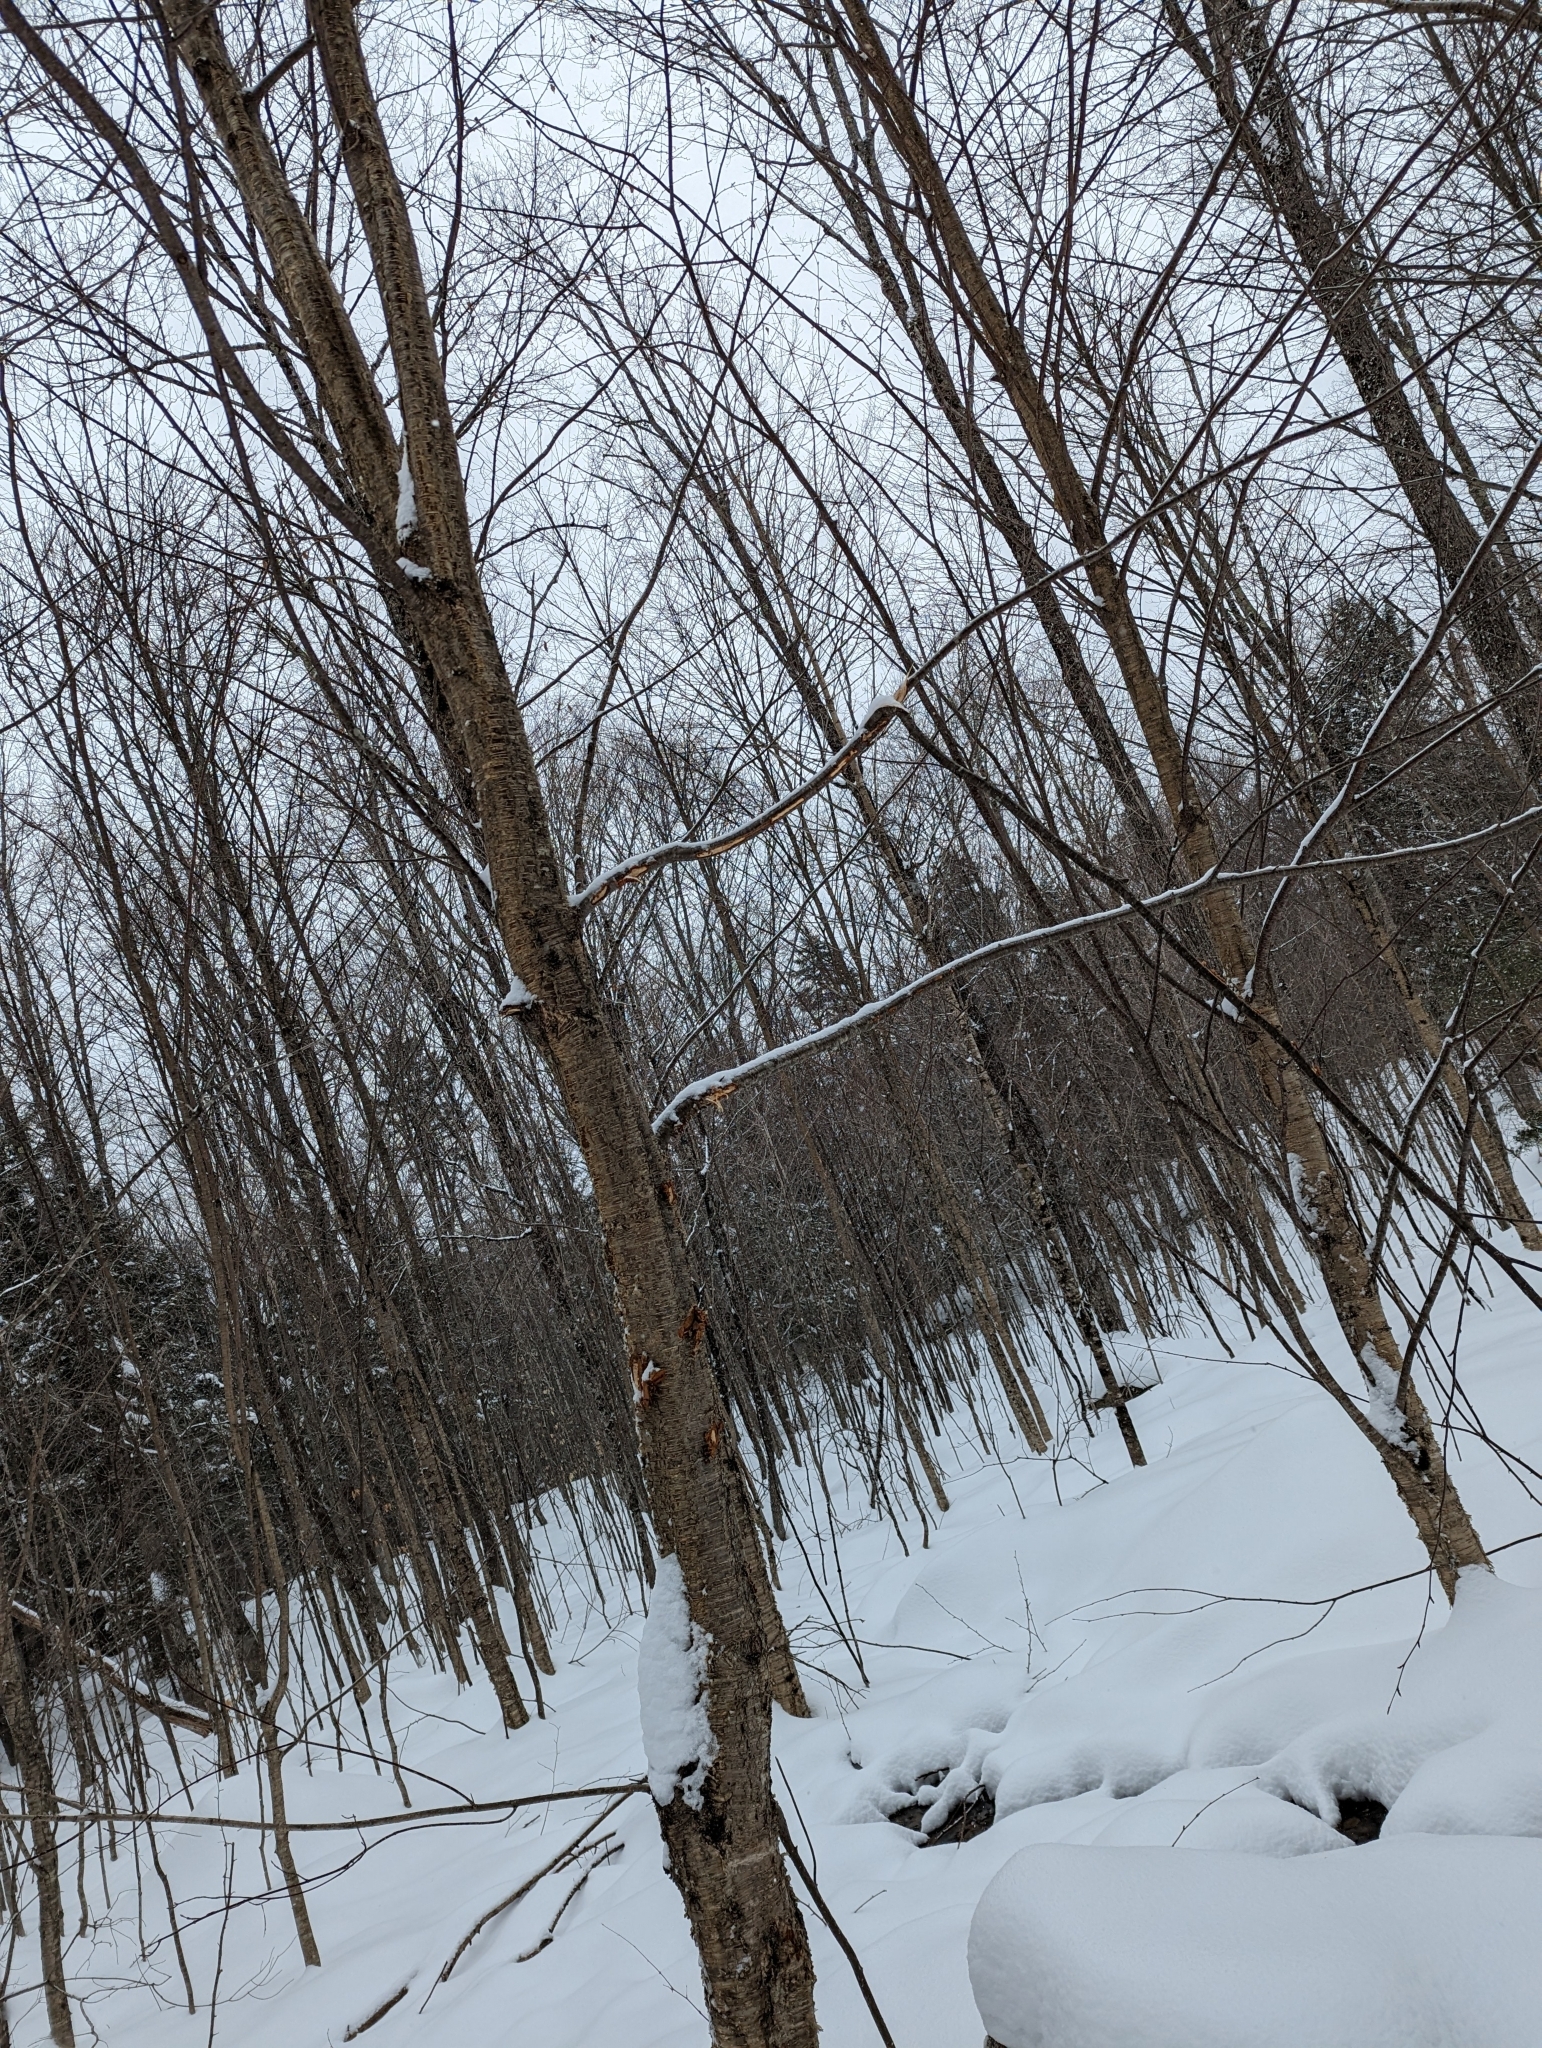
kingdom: Plantae
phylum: Tracheophyta
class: Magnoliopsida
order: Fagales
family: Betulaceae
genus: Betula
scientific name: Betula alleghaniensis
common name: Yellow birch
